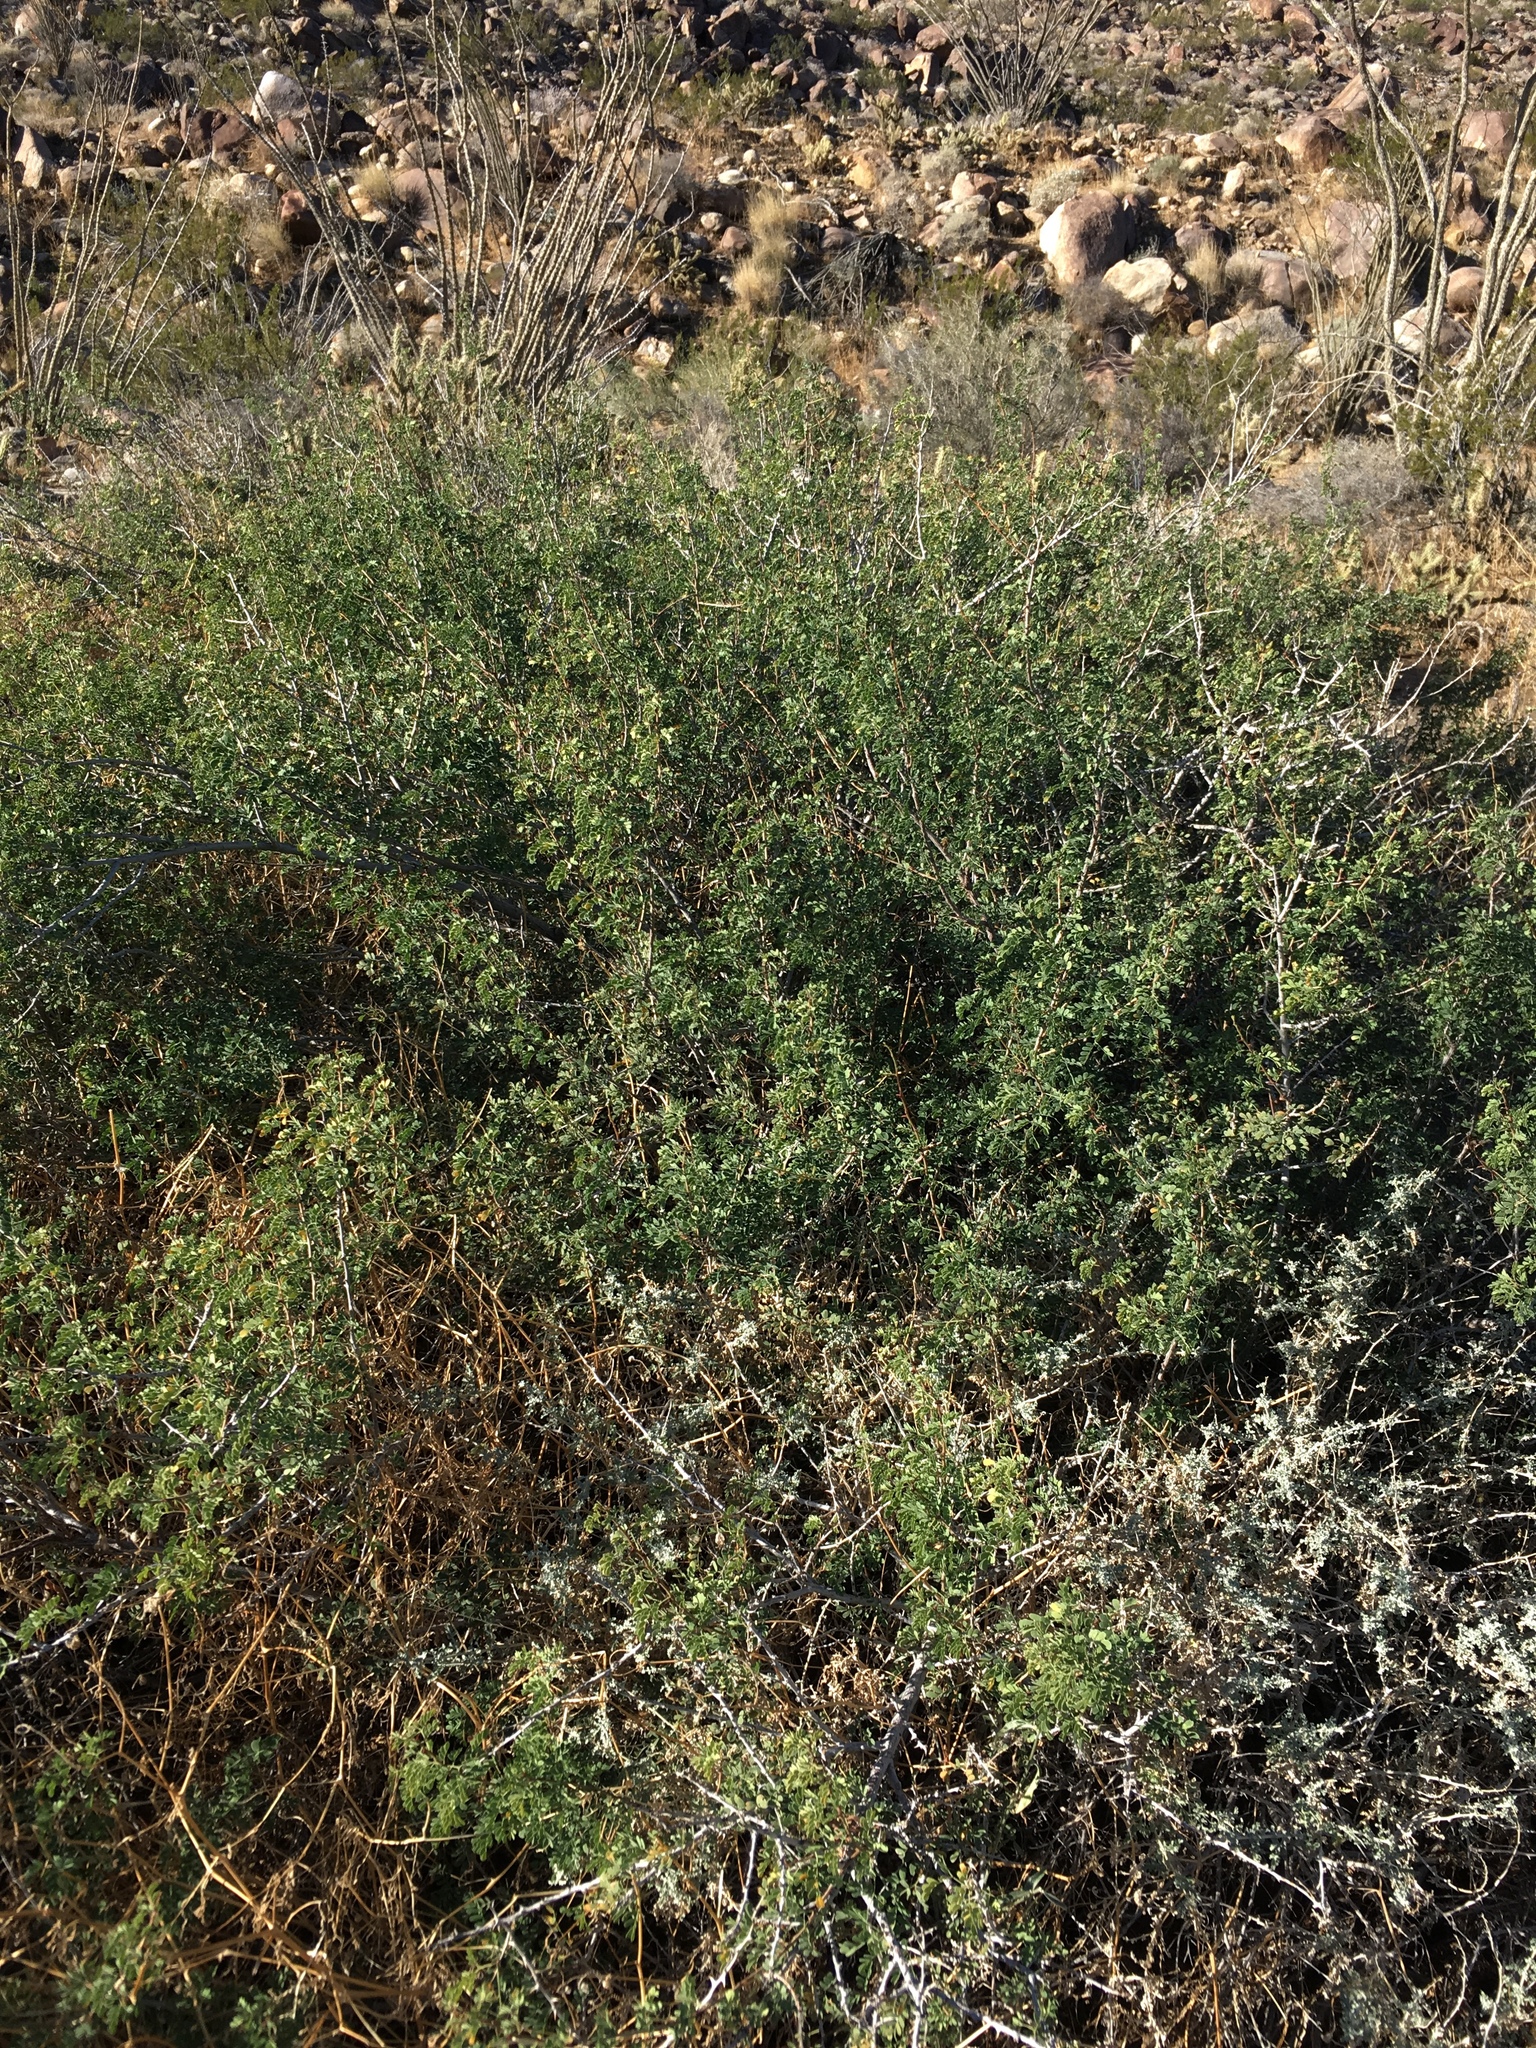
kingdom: Plantae
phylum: Tracheophyta
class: Magnoliopsida
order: Fabales
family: Fabaceae
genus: Senegalia
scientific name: Senegalia greggii
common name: Texas-mimosa
